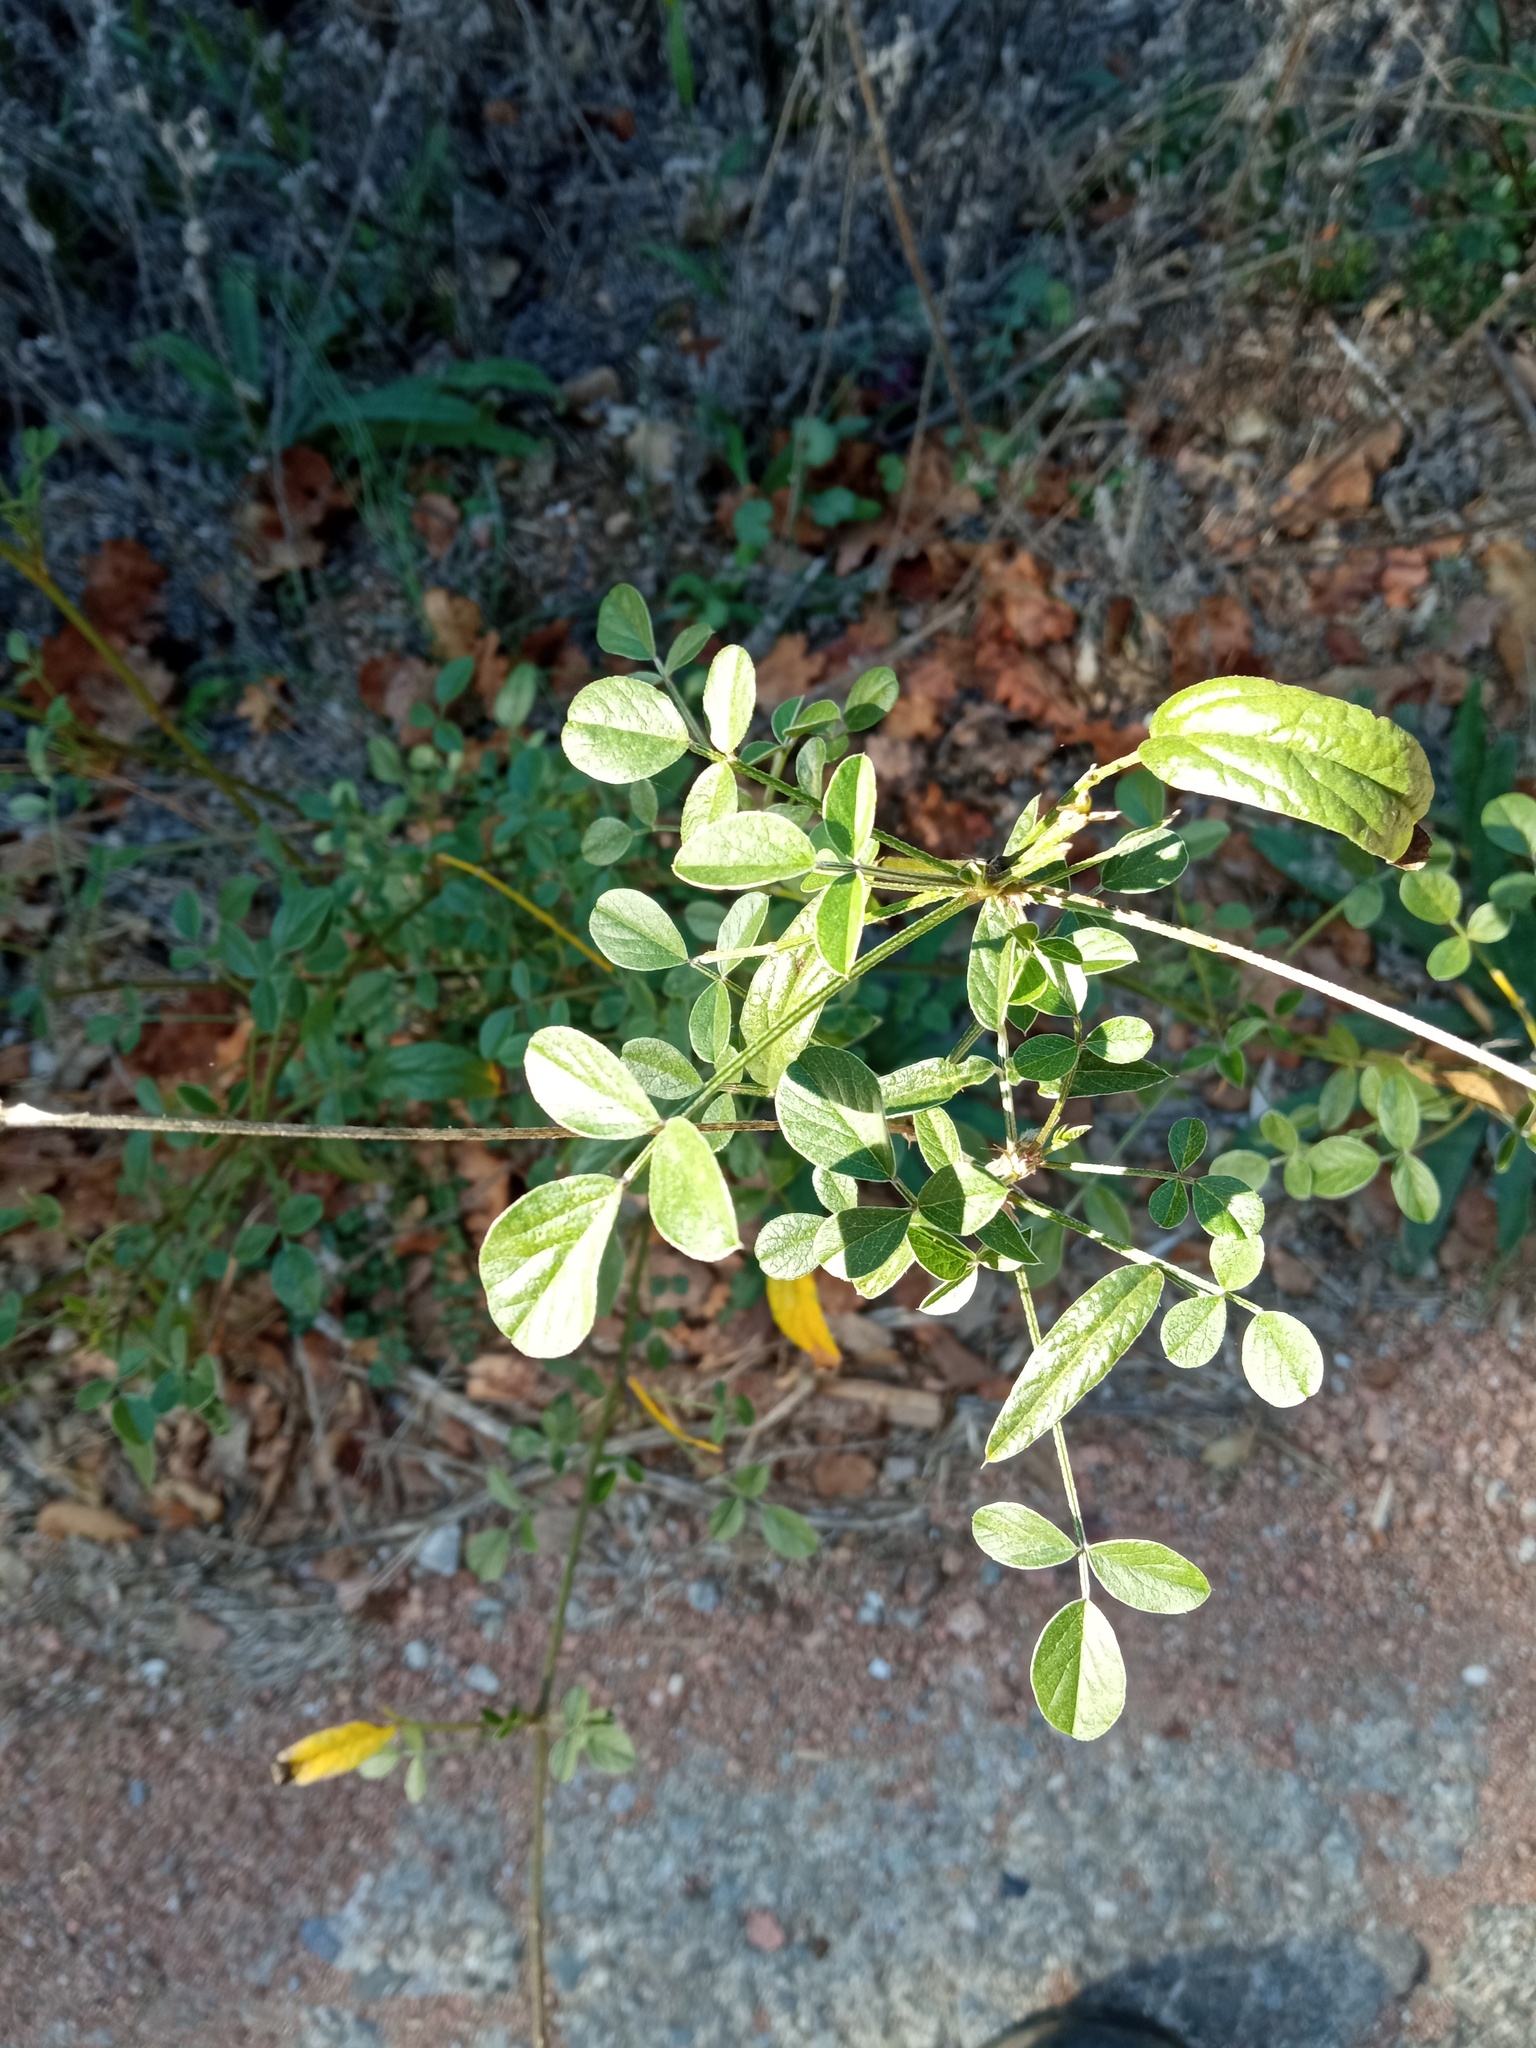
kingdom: Plantae
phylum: Tracheophyta
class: Magnoliopsida
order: Fabales
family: Fabaceae
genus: Bituminaria
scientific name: Bituminaria bituminosa
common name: Arabian pea
